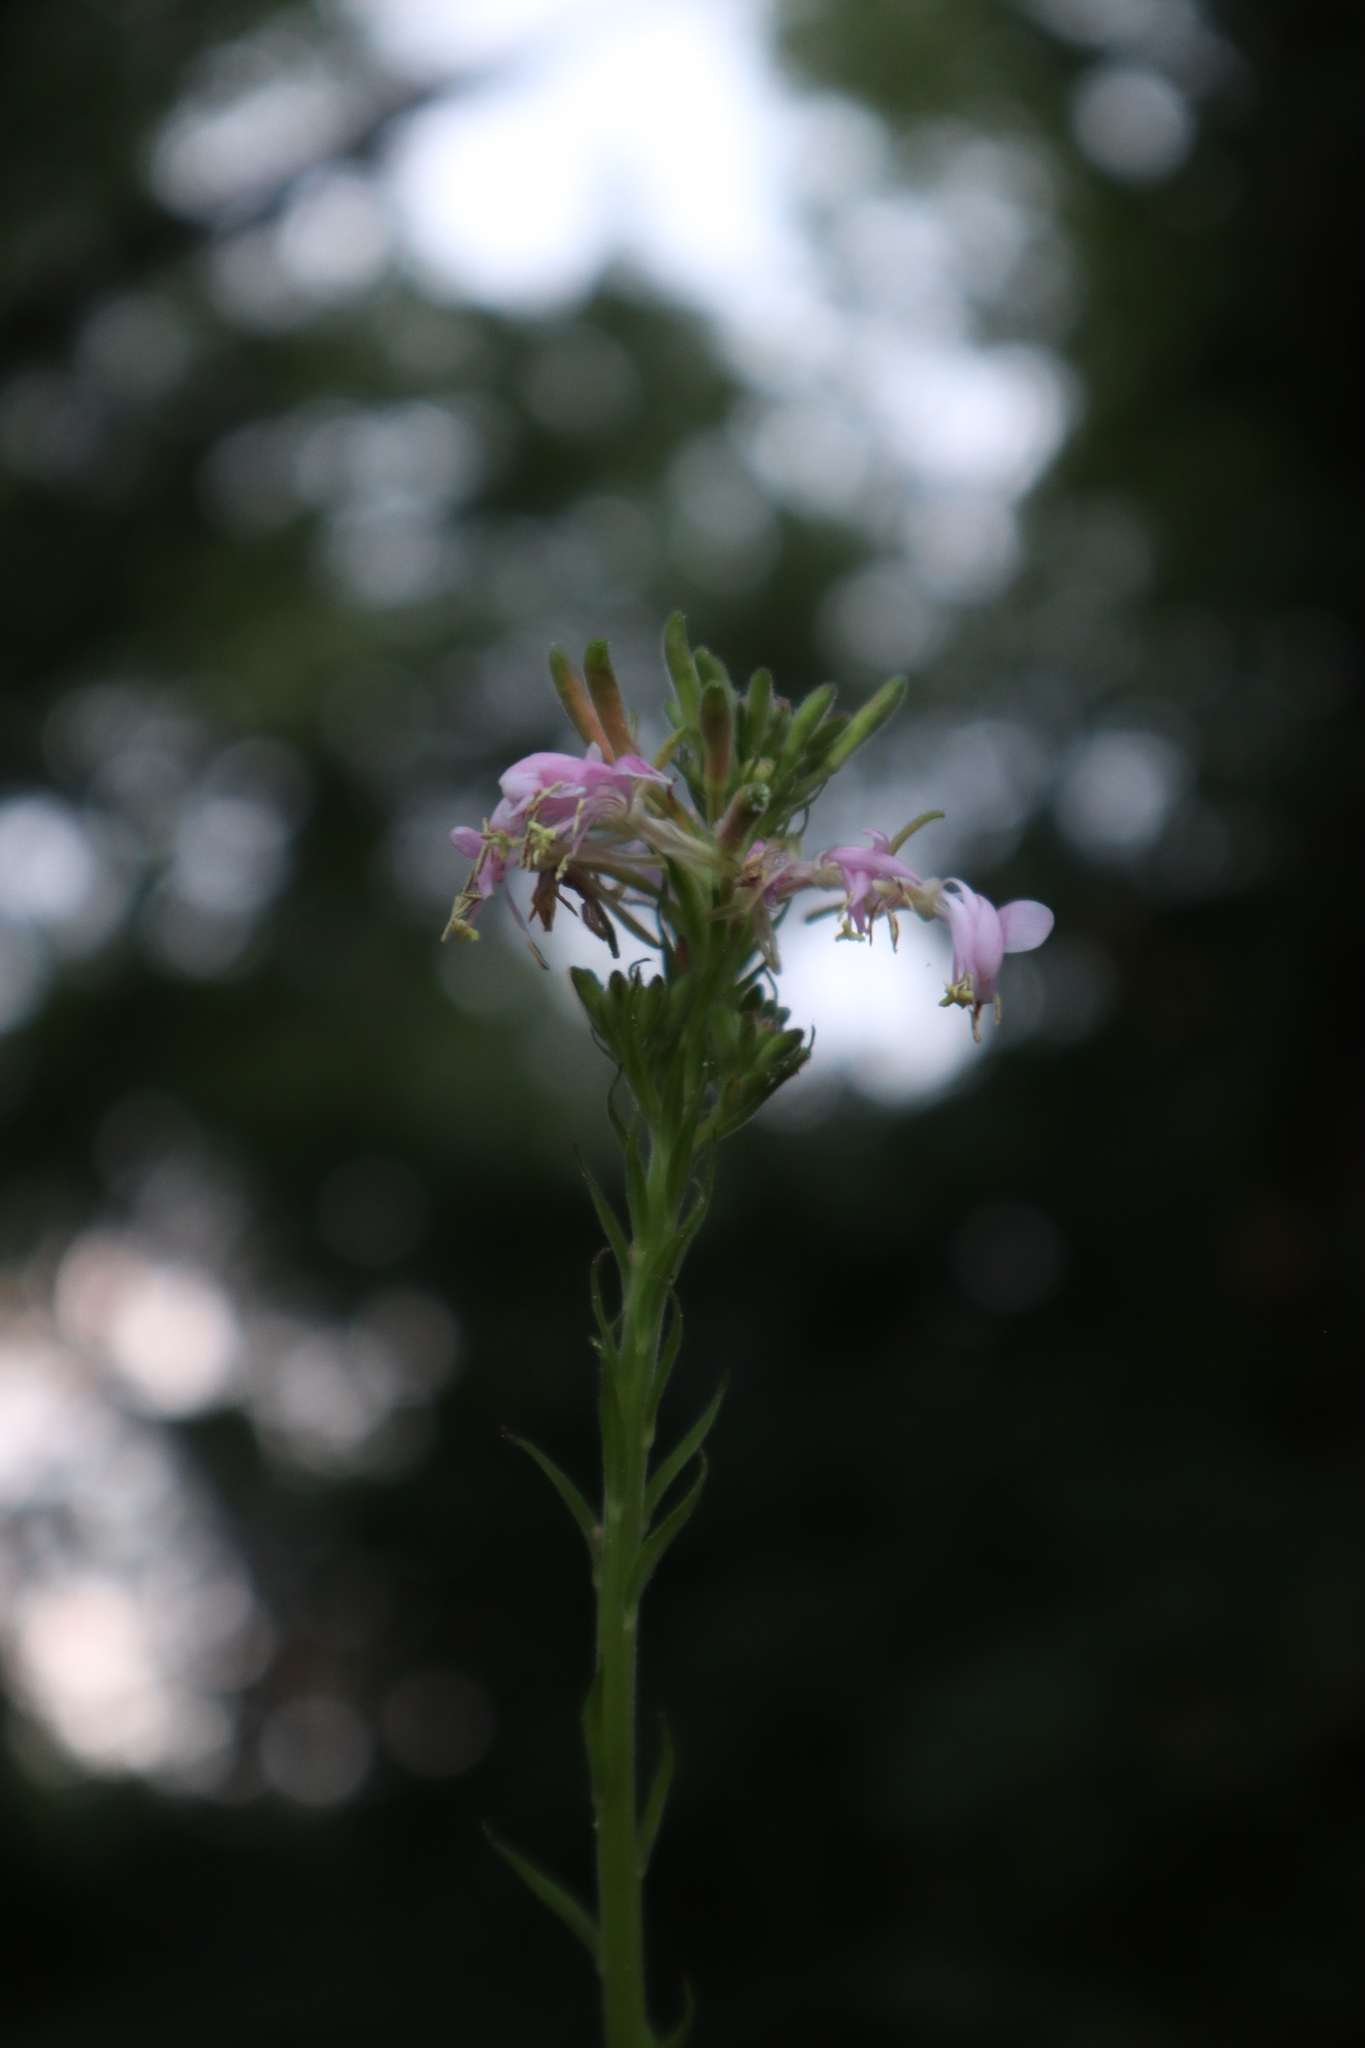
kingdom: Plantae
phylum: Tracheophyta
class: Magnoliopsida
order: Myrtales
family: Onagraceae
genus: Oenothera
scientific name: Oenothera gaura
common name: Biennial beeblossom
